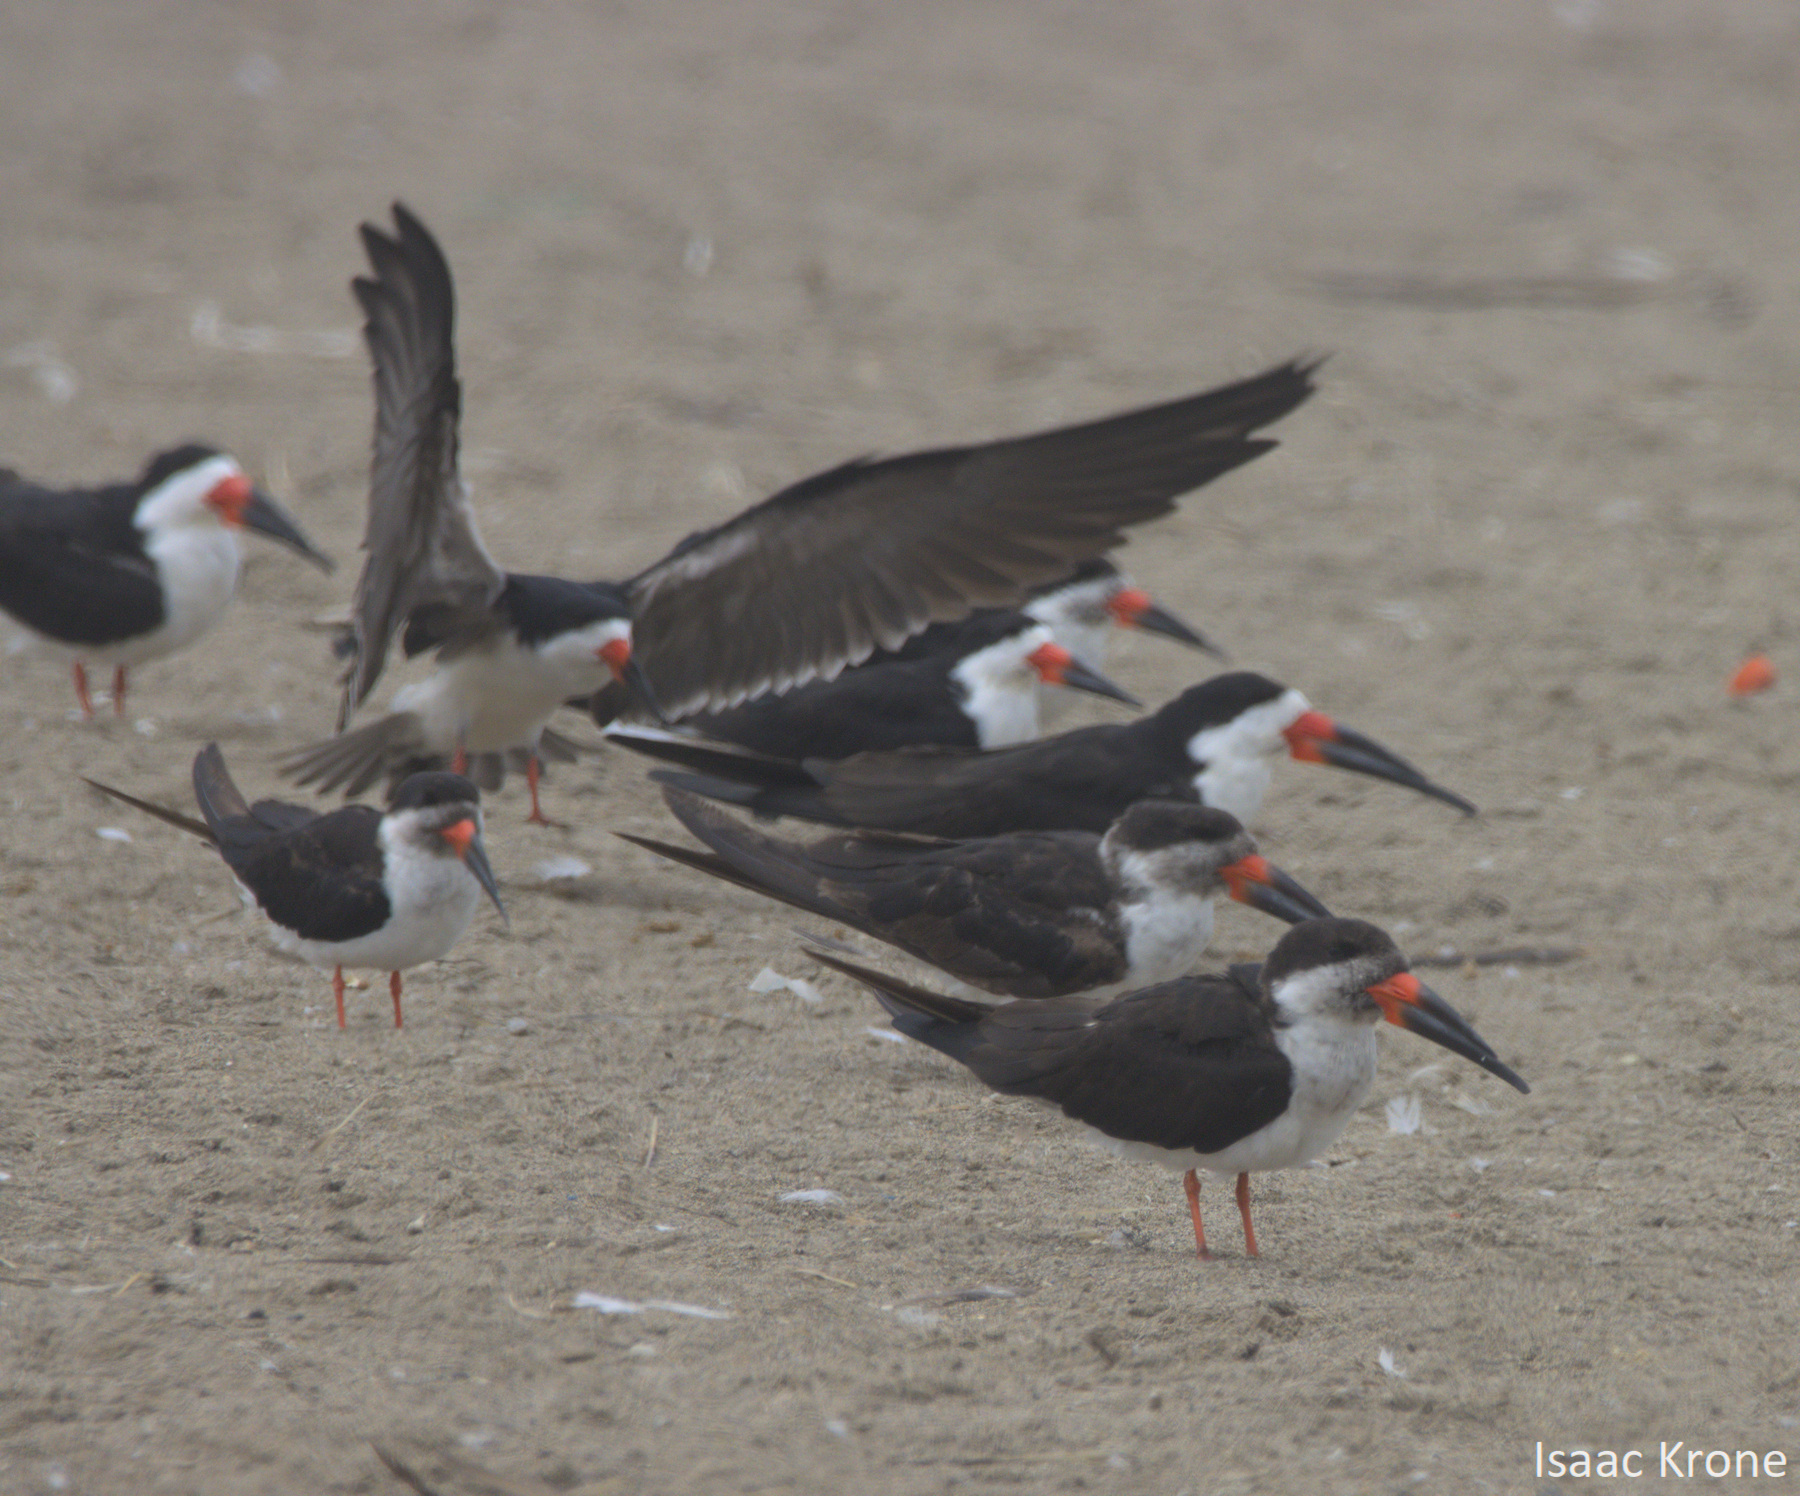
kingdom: Animalia
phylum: Chordata
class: Aves
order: Charadriiformes
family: Laridae
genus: Rynchops
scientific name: Rynchops niger
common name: Black skimmer
